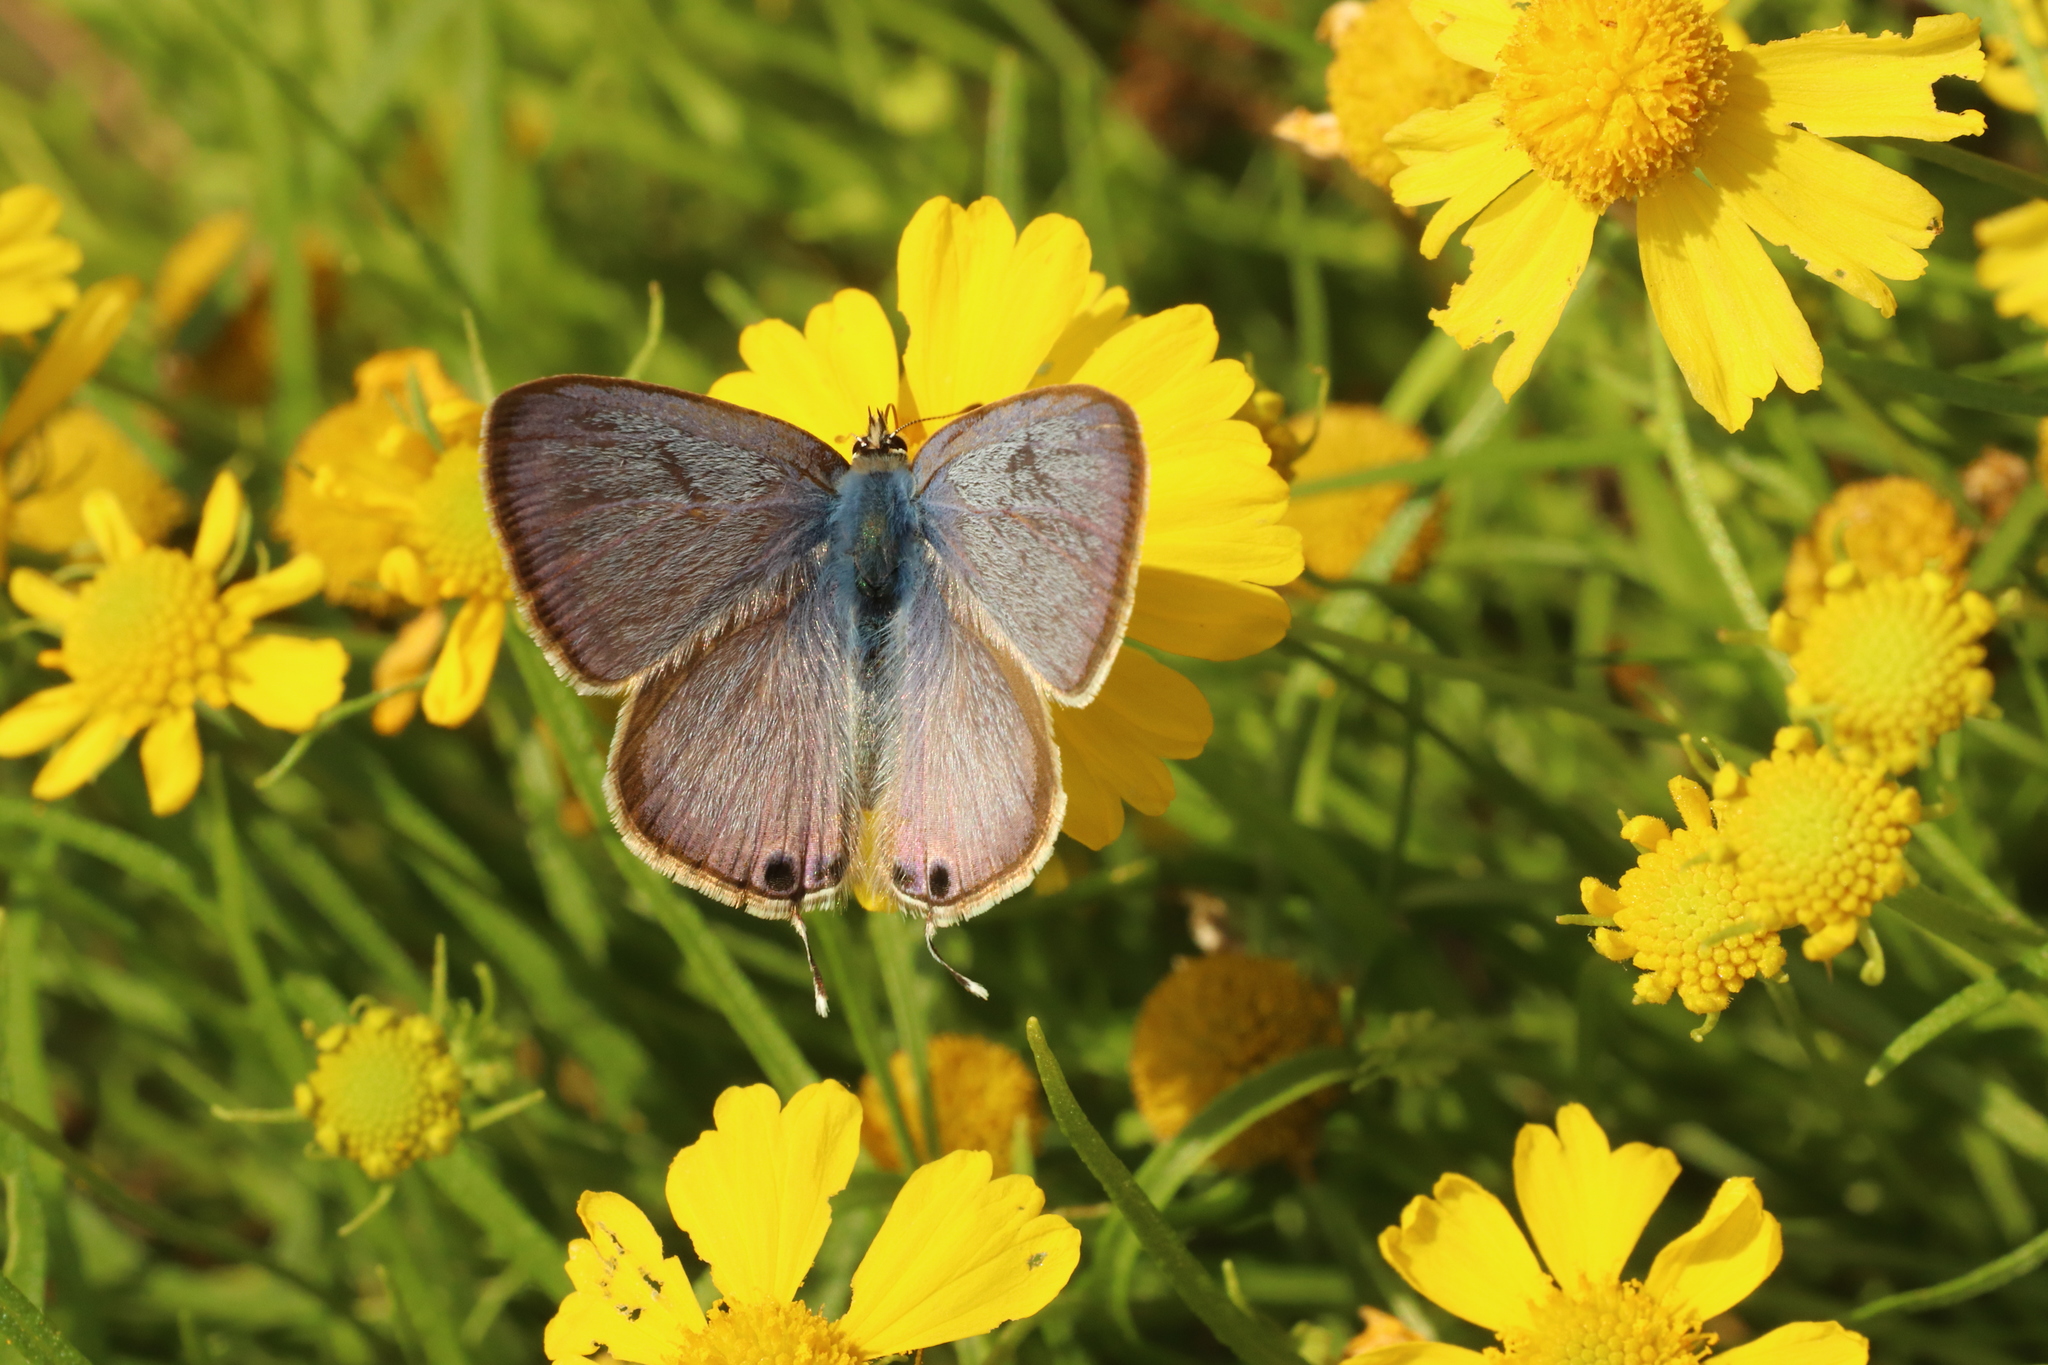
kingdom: Animalia
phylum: Arthropoda
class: Insecta
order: Lepidoptera
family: Lycaenidae
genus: Lampides
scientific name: Lampides boeticus
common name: Long-tailed blue
